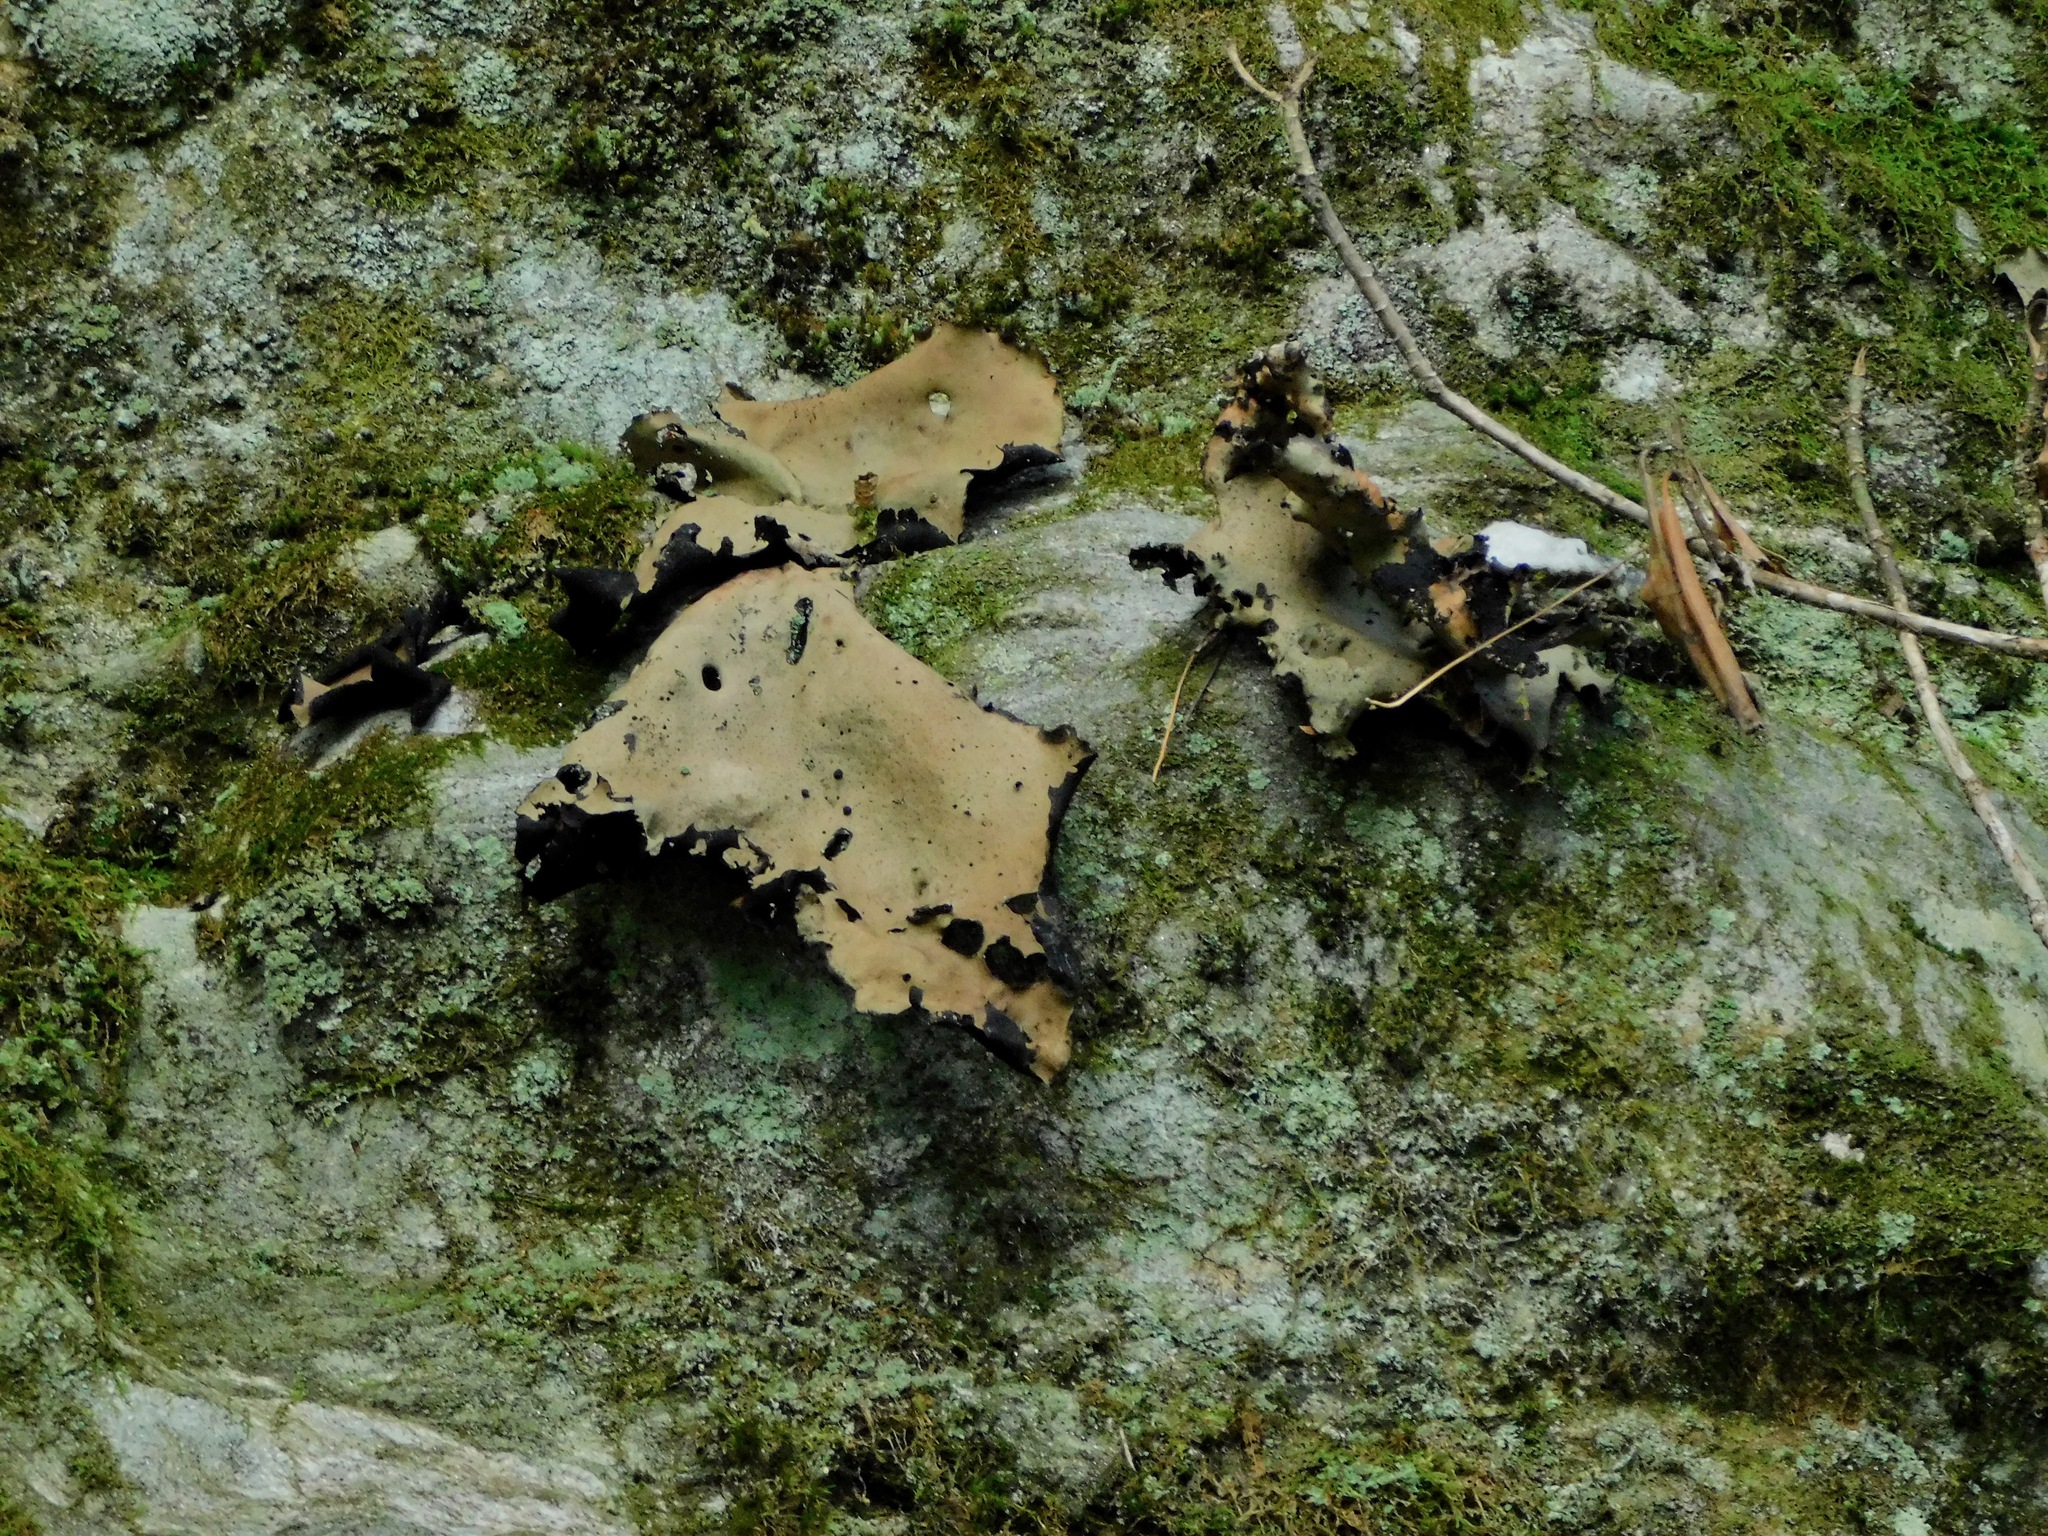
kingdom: Fungi
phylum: Ascomycota
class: Lecanoromycetes
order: Umbilicariales
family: Umbilicariaceae
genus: Umbilicaria
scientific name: Umbilicaria mammulata
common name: Smooth rock tripe
